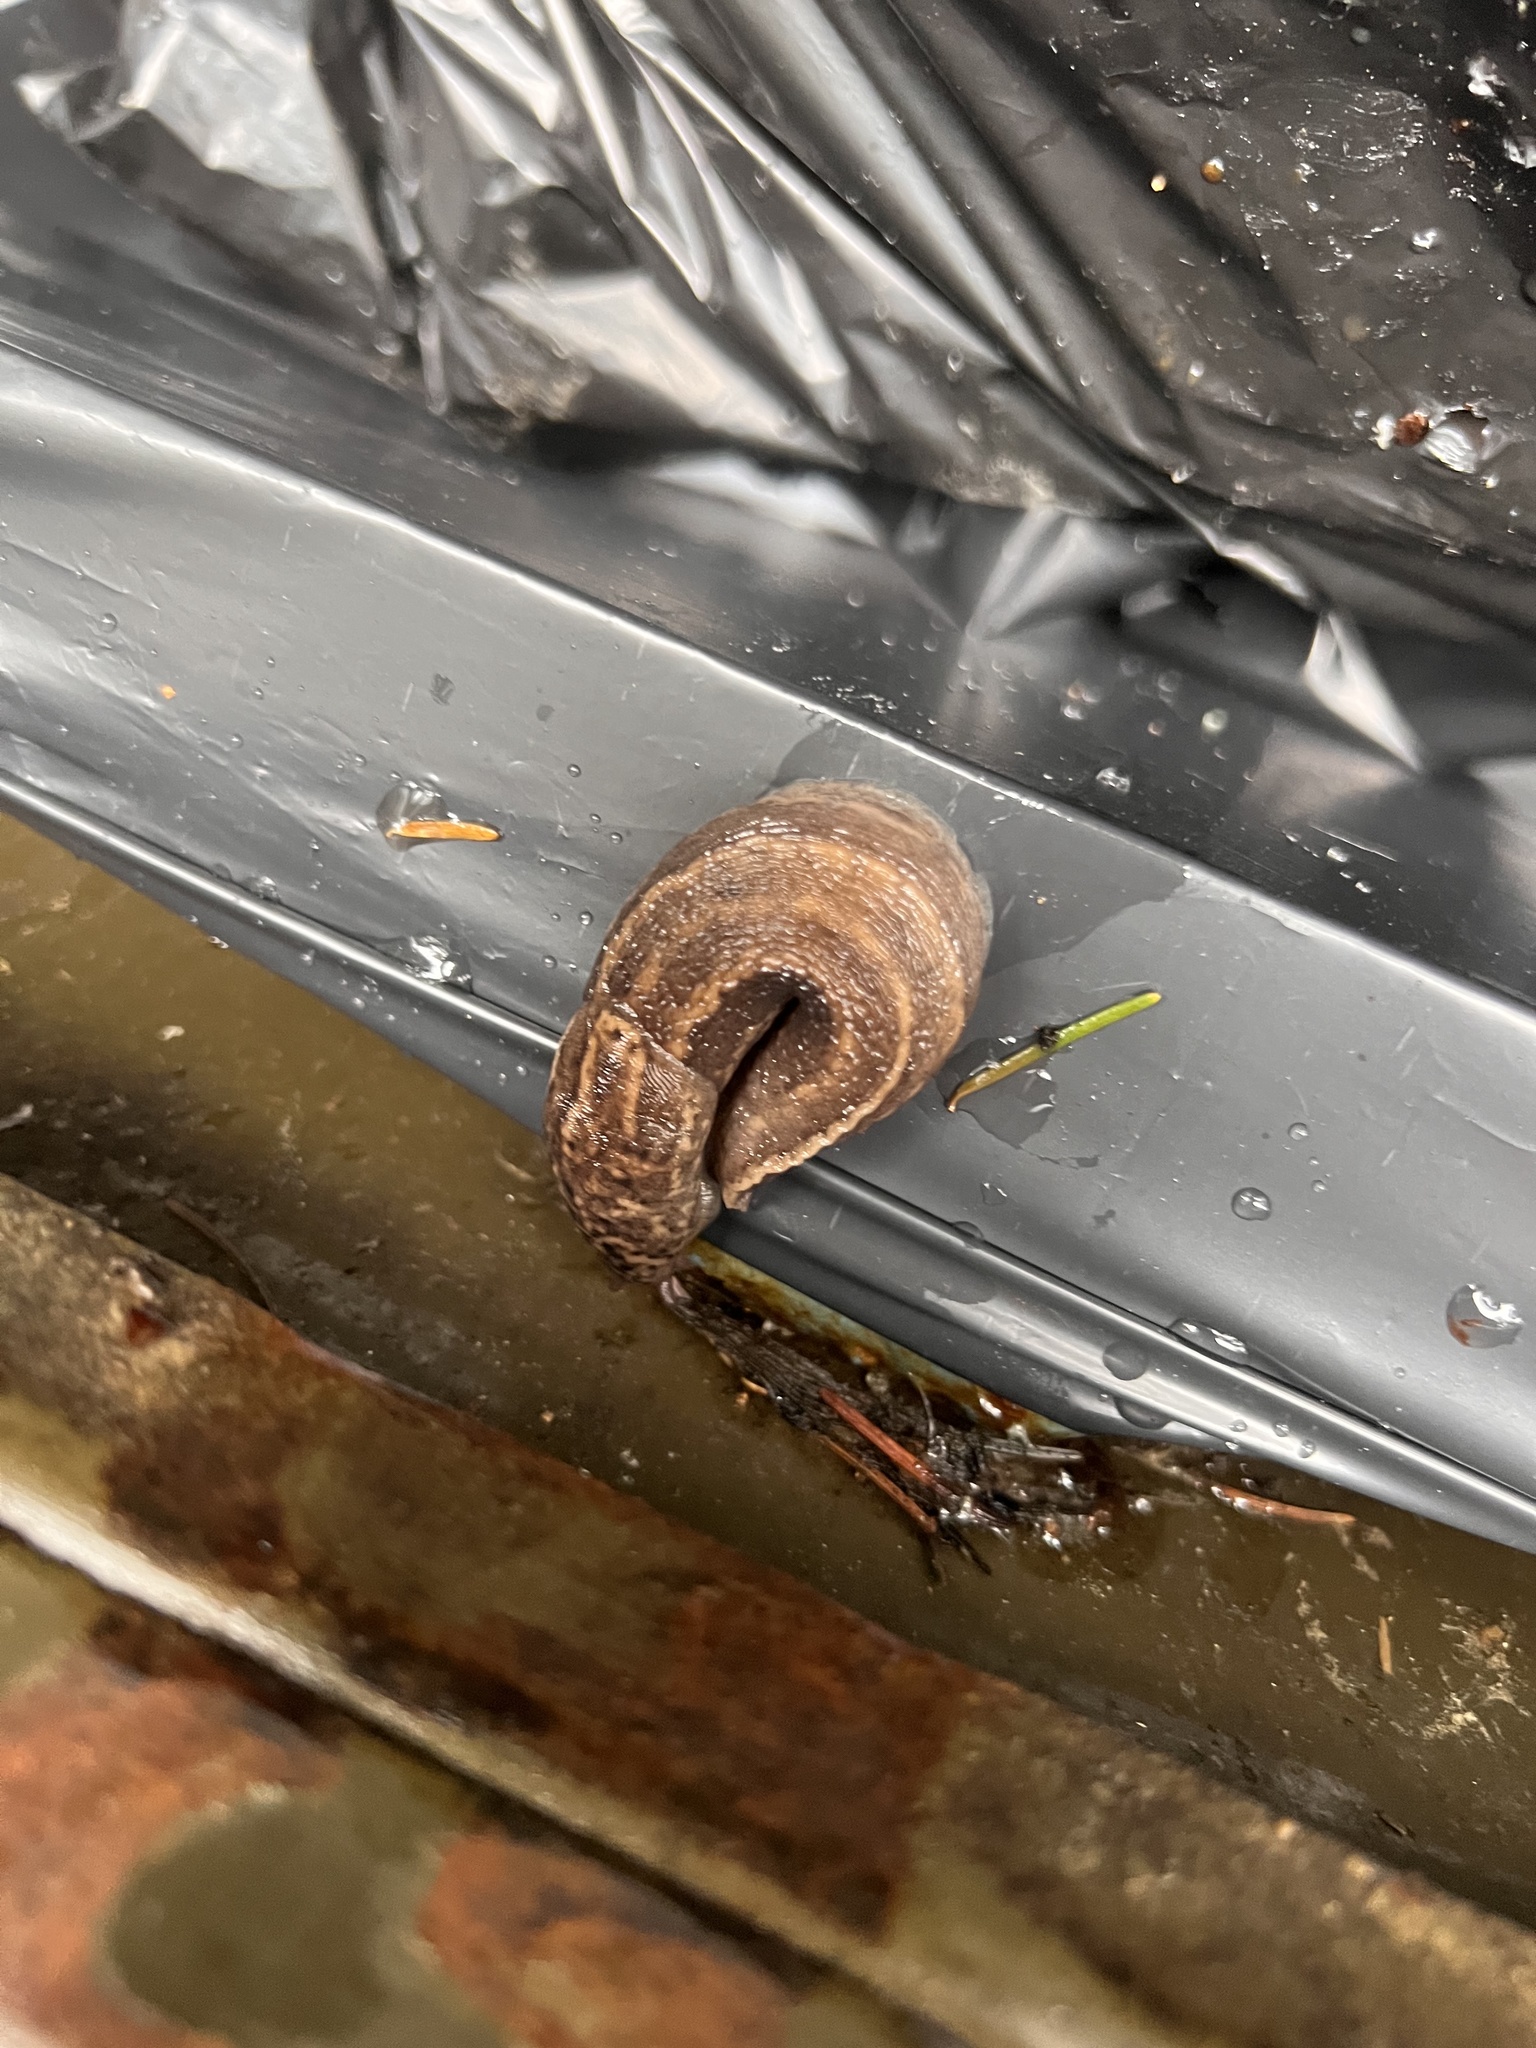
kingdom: Animalia
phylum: Mollusca
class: Gastropoda
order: Stylommatophora
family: Limacidae
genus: Limax
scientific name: Limax maximus
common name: Great grey slug
